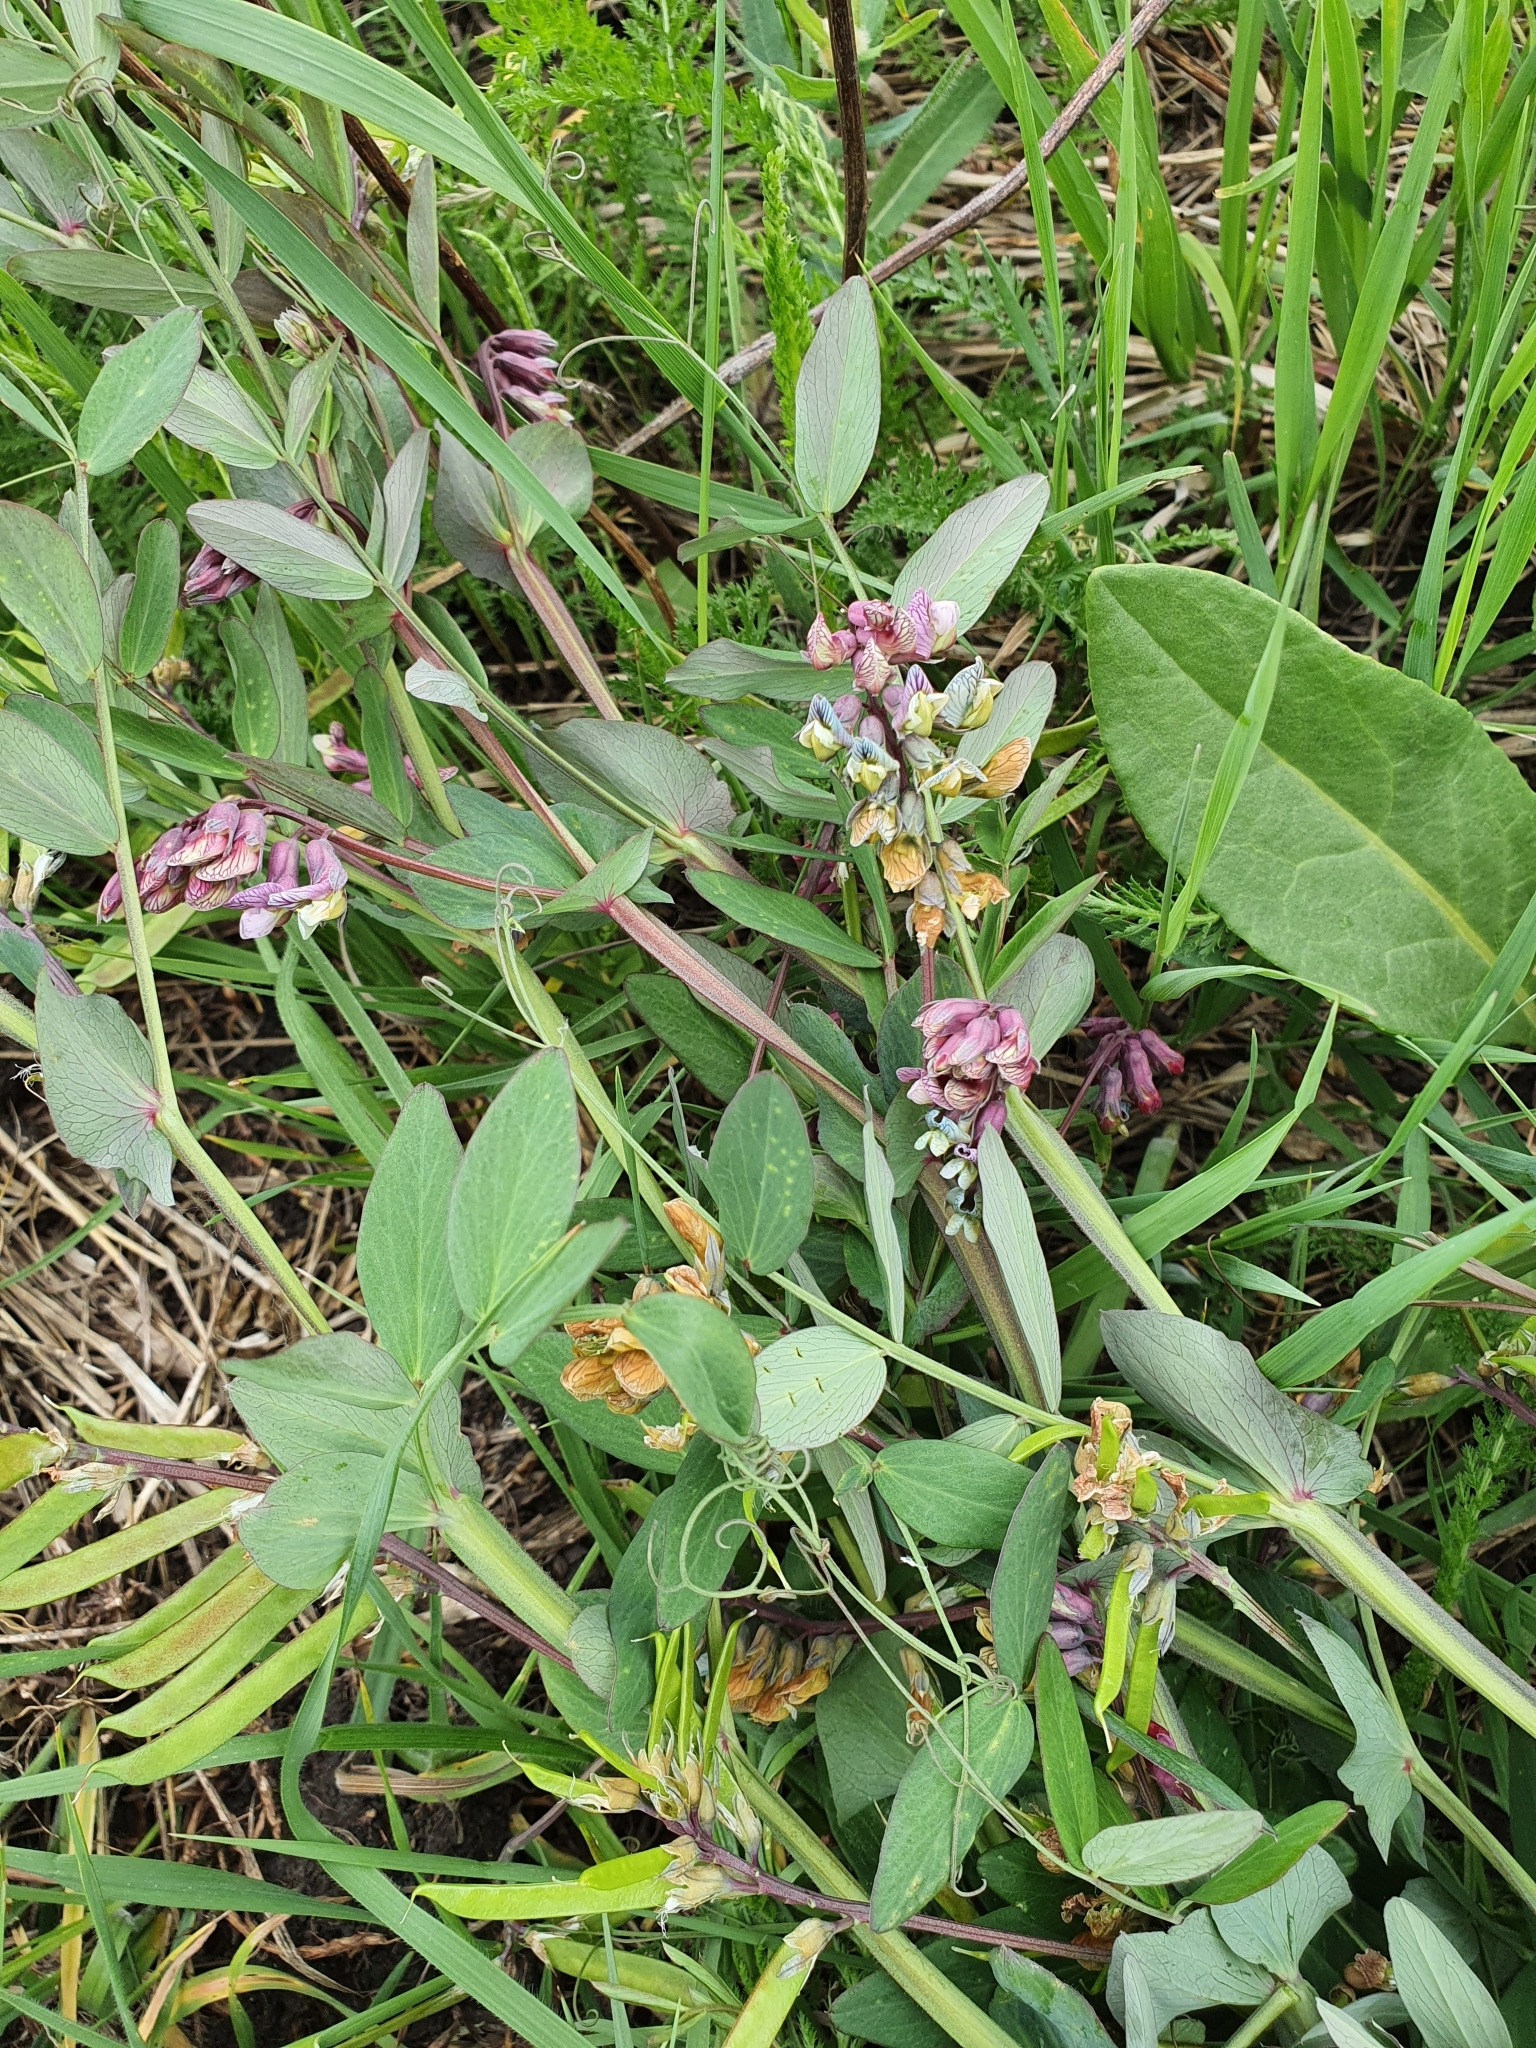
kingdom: Plantae
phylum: Tracheophyta
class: Magnoliopsida
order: Fabales
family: Fabaceae
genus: Lathyrus
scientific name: Lathyrus pisiformis
